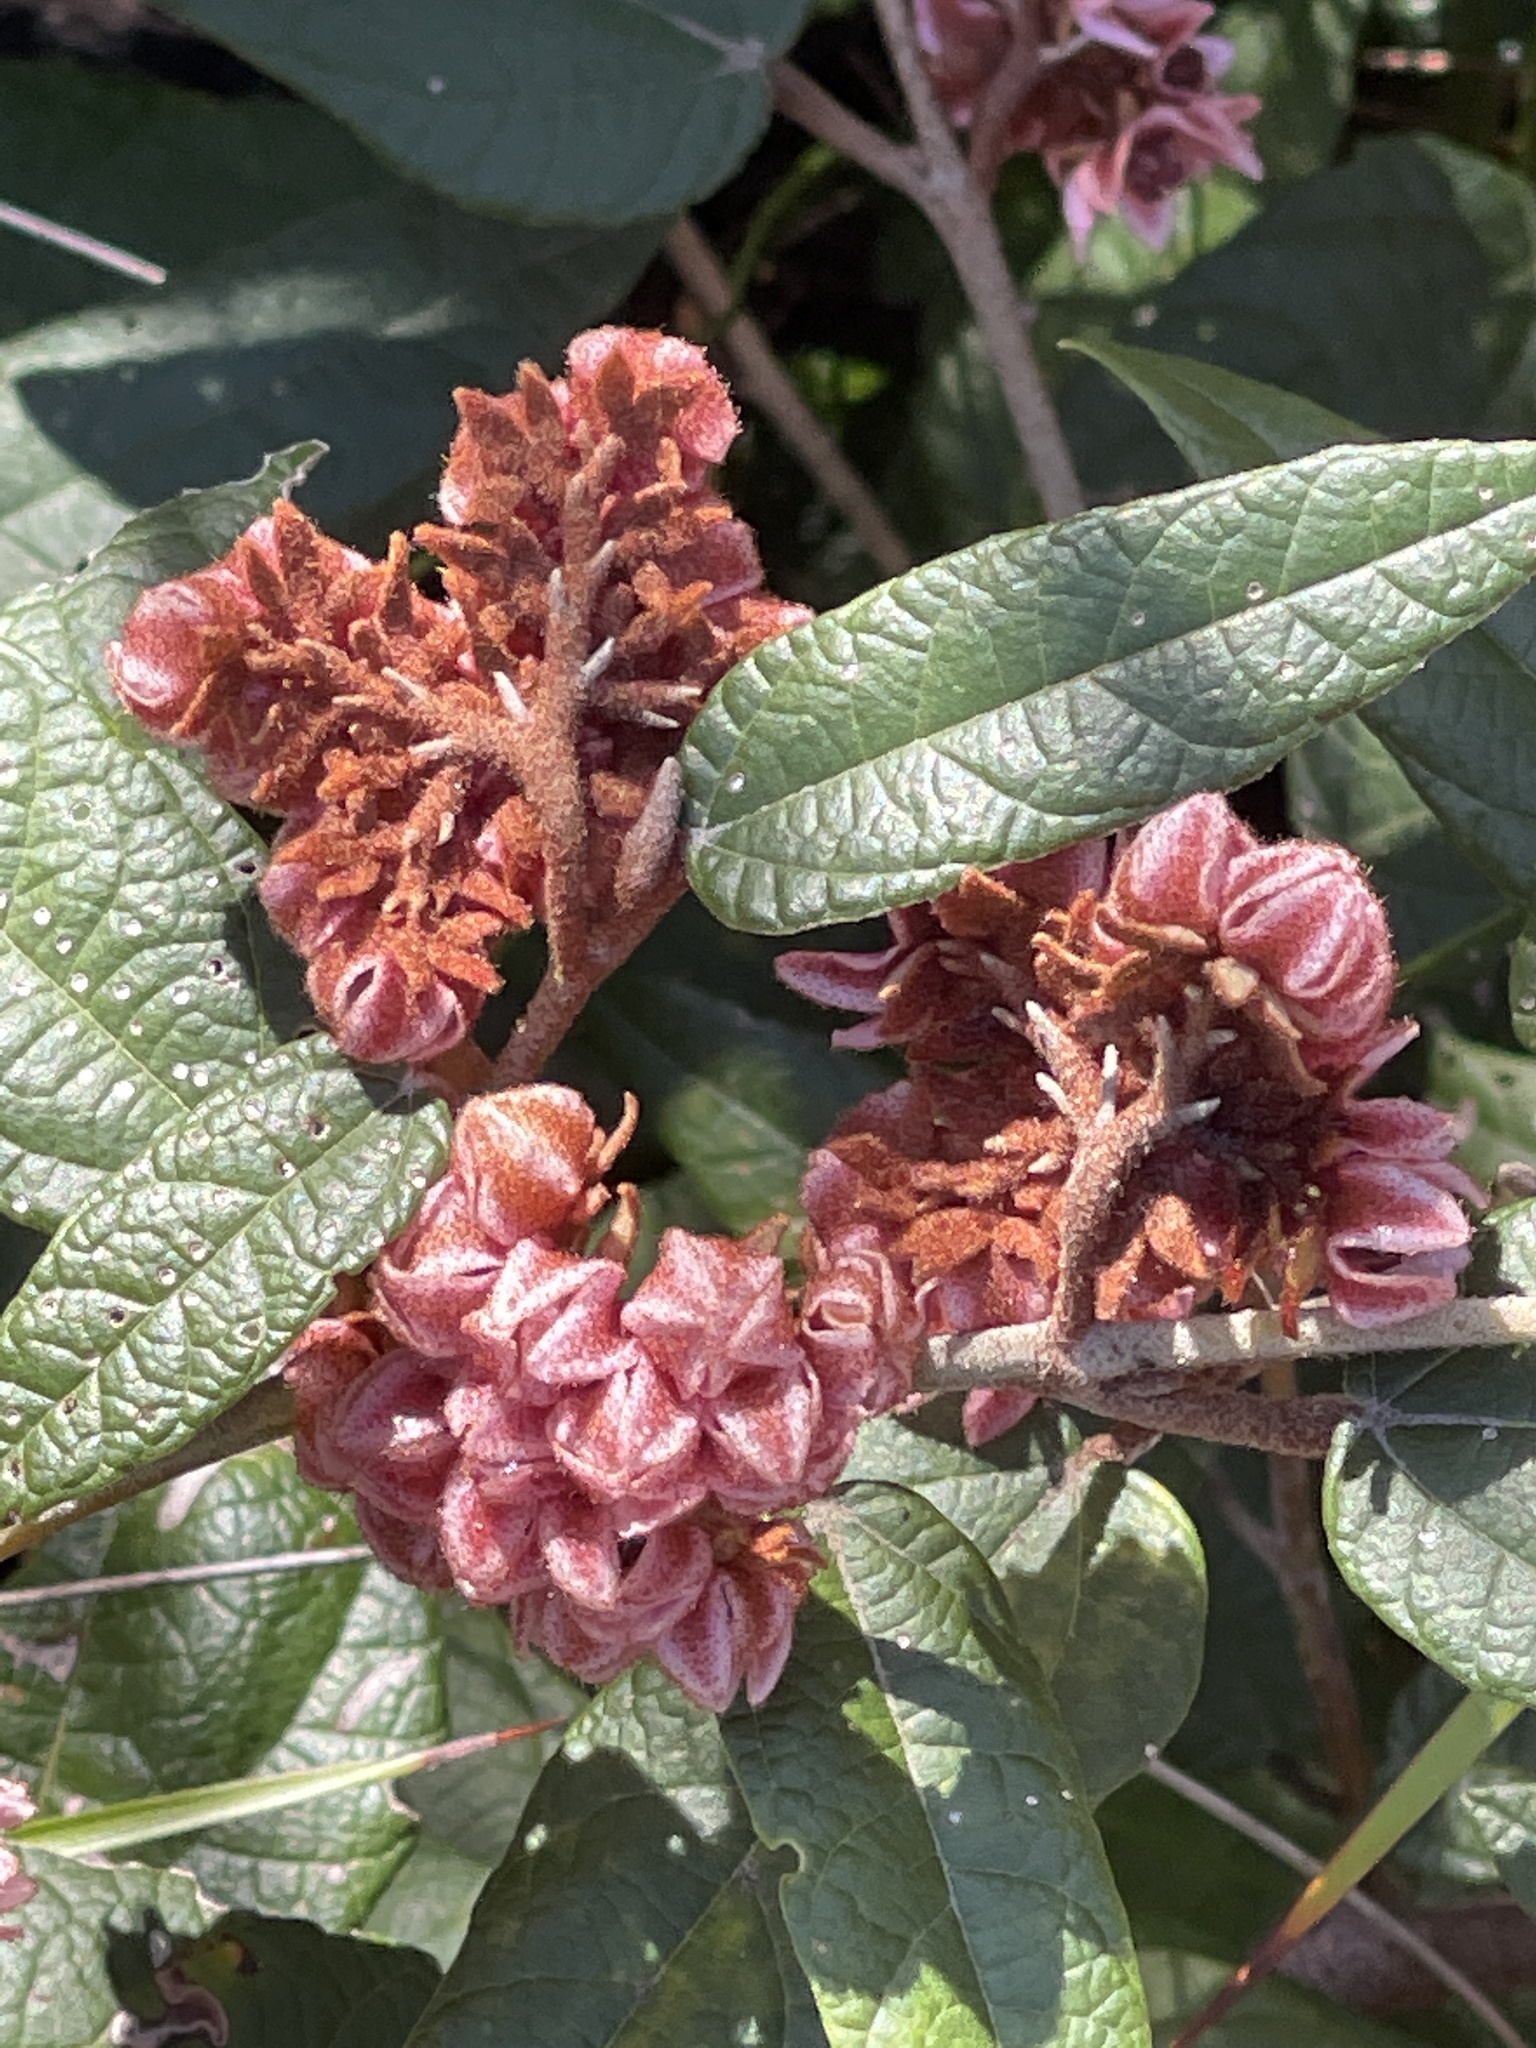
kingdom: Plantae
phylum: Tracheophyta
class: Magnoliopsida
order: Malvales
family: Malvaceae
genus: Lasiopetalum
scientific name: Lasiopetalum macrophyllum
